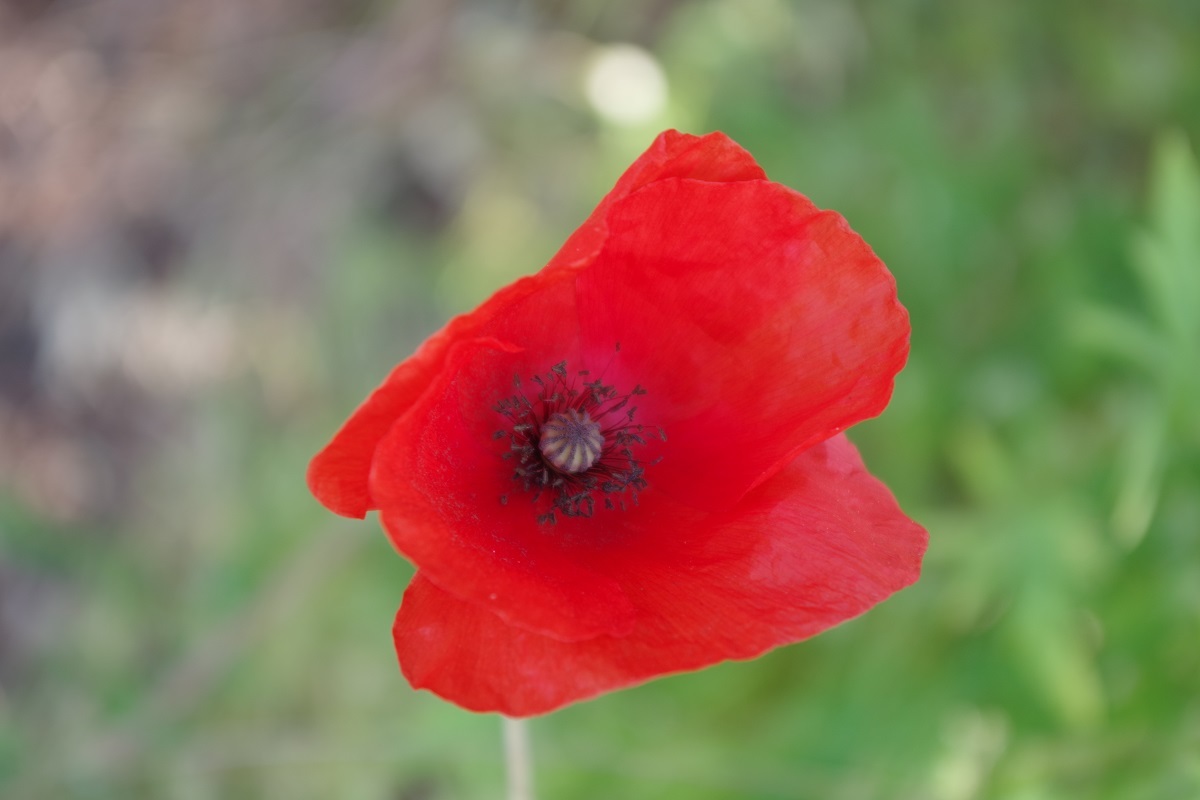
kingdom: Plantae
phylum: Tracheophyta
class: Magnoliopsida
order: Ranunculales
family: Papaveraceae
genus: Papaver
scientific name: Papaver rhoeas
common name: Corn poppy
